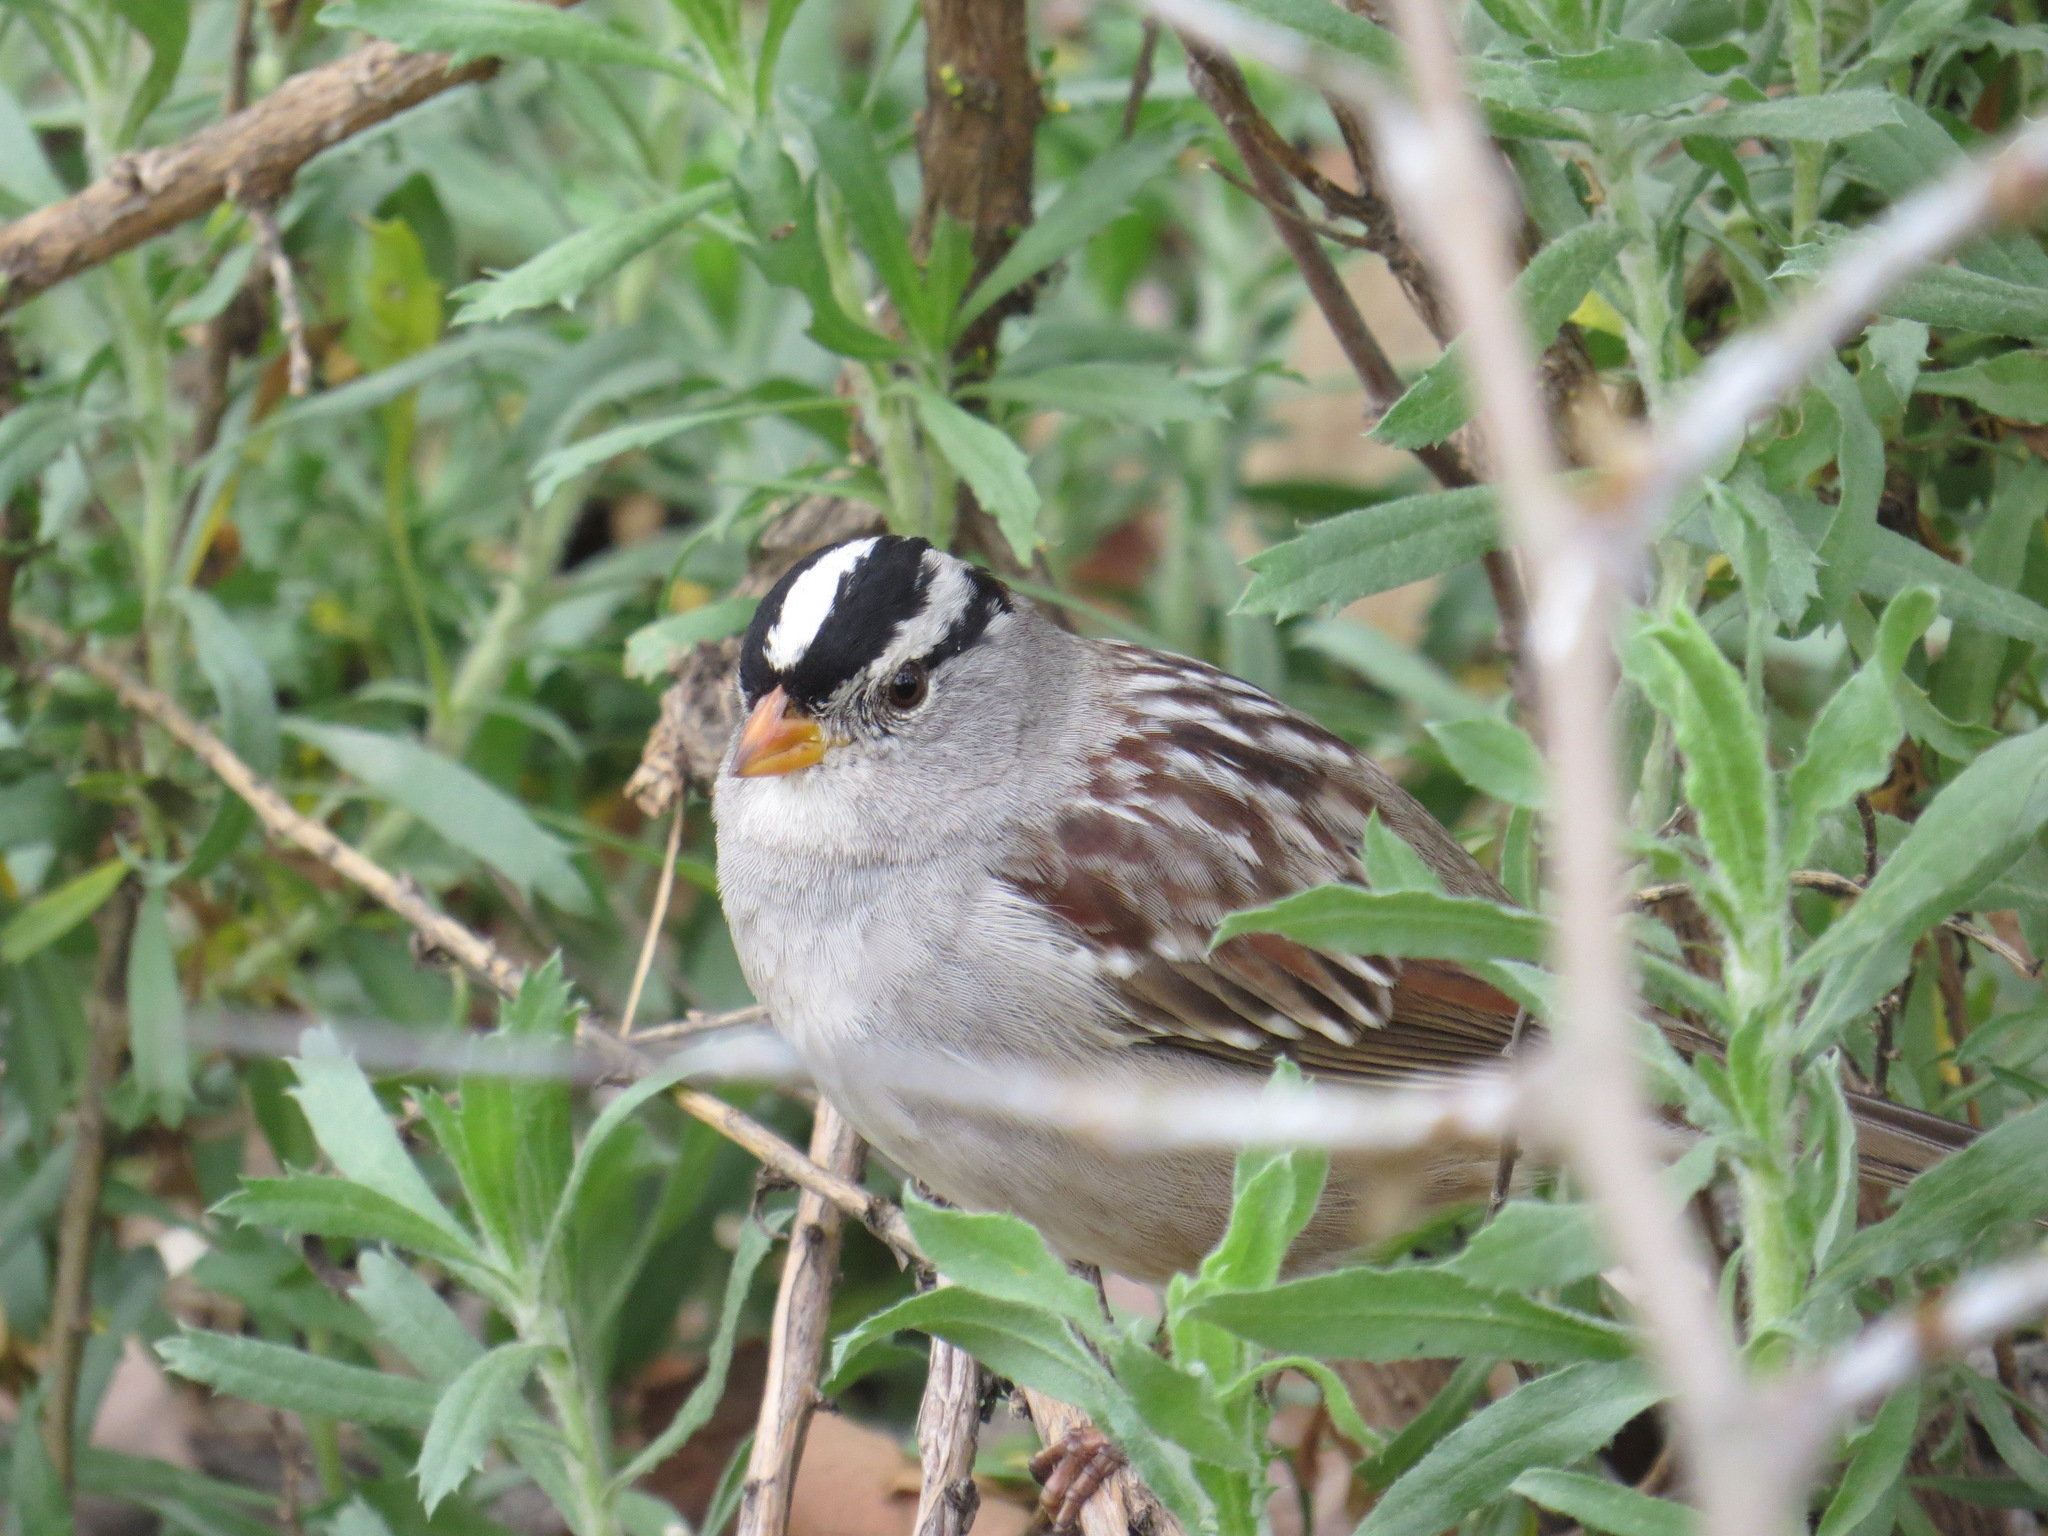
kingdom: Animalia
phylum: Chordata
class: Aves
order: Passeriformes
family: Passerellidae
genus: Zonotrichia
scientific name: Zonotrichia leucophrys
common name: White-crowned sparrow
